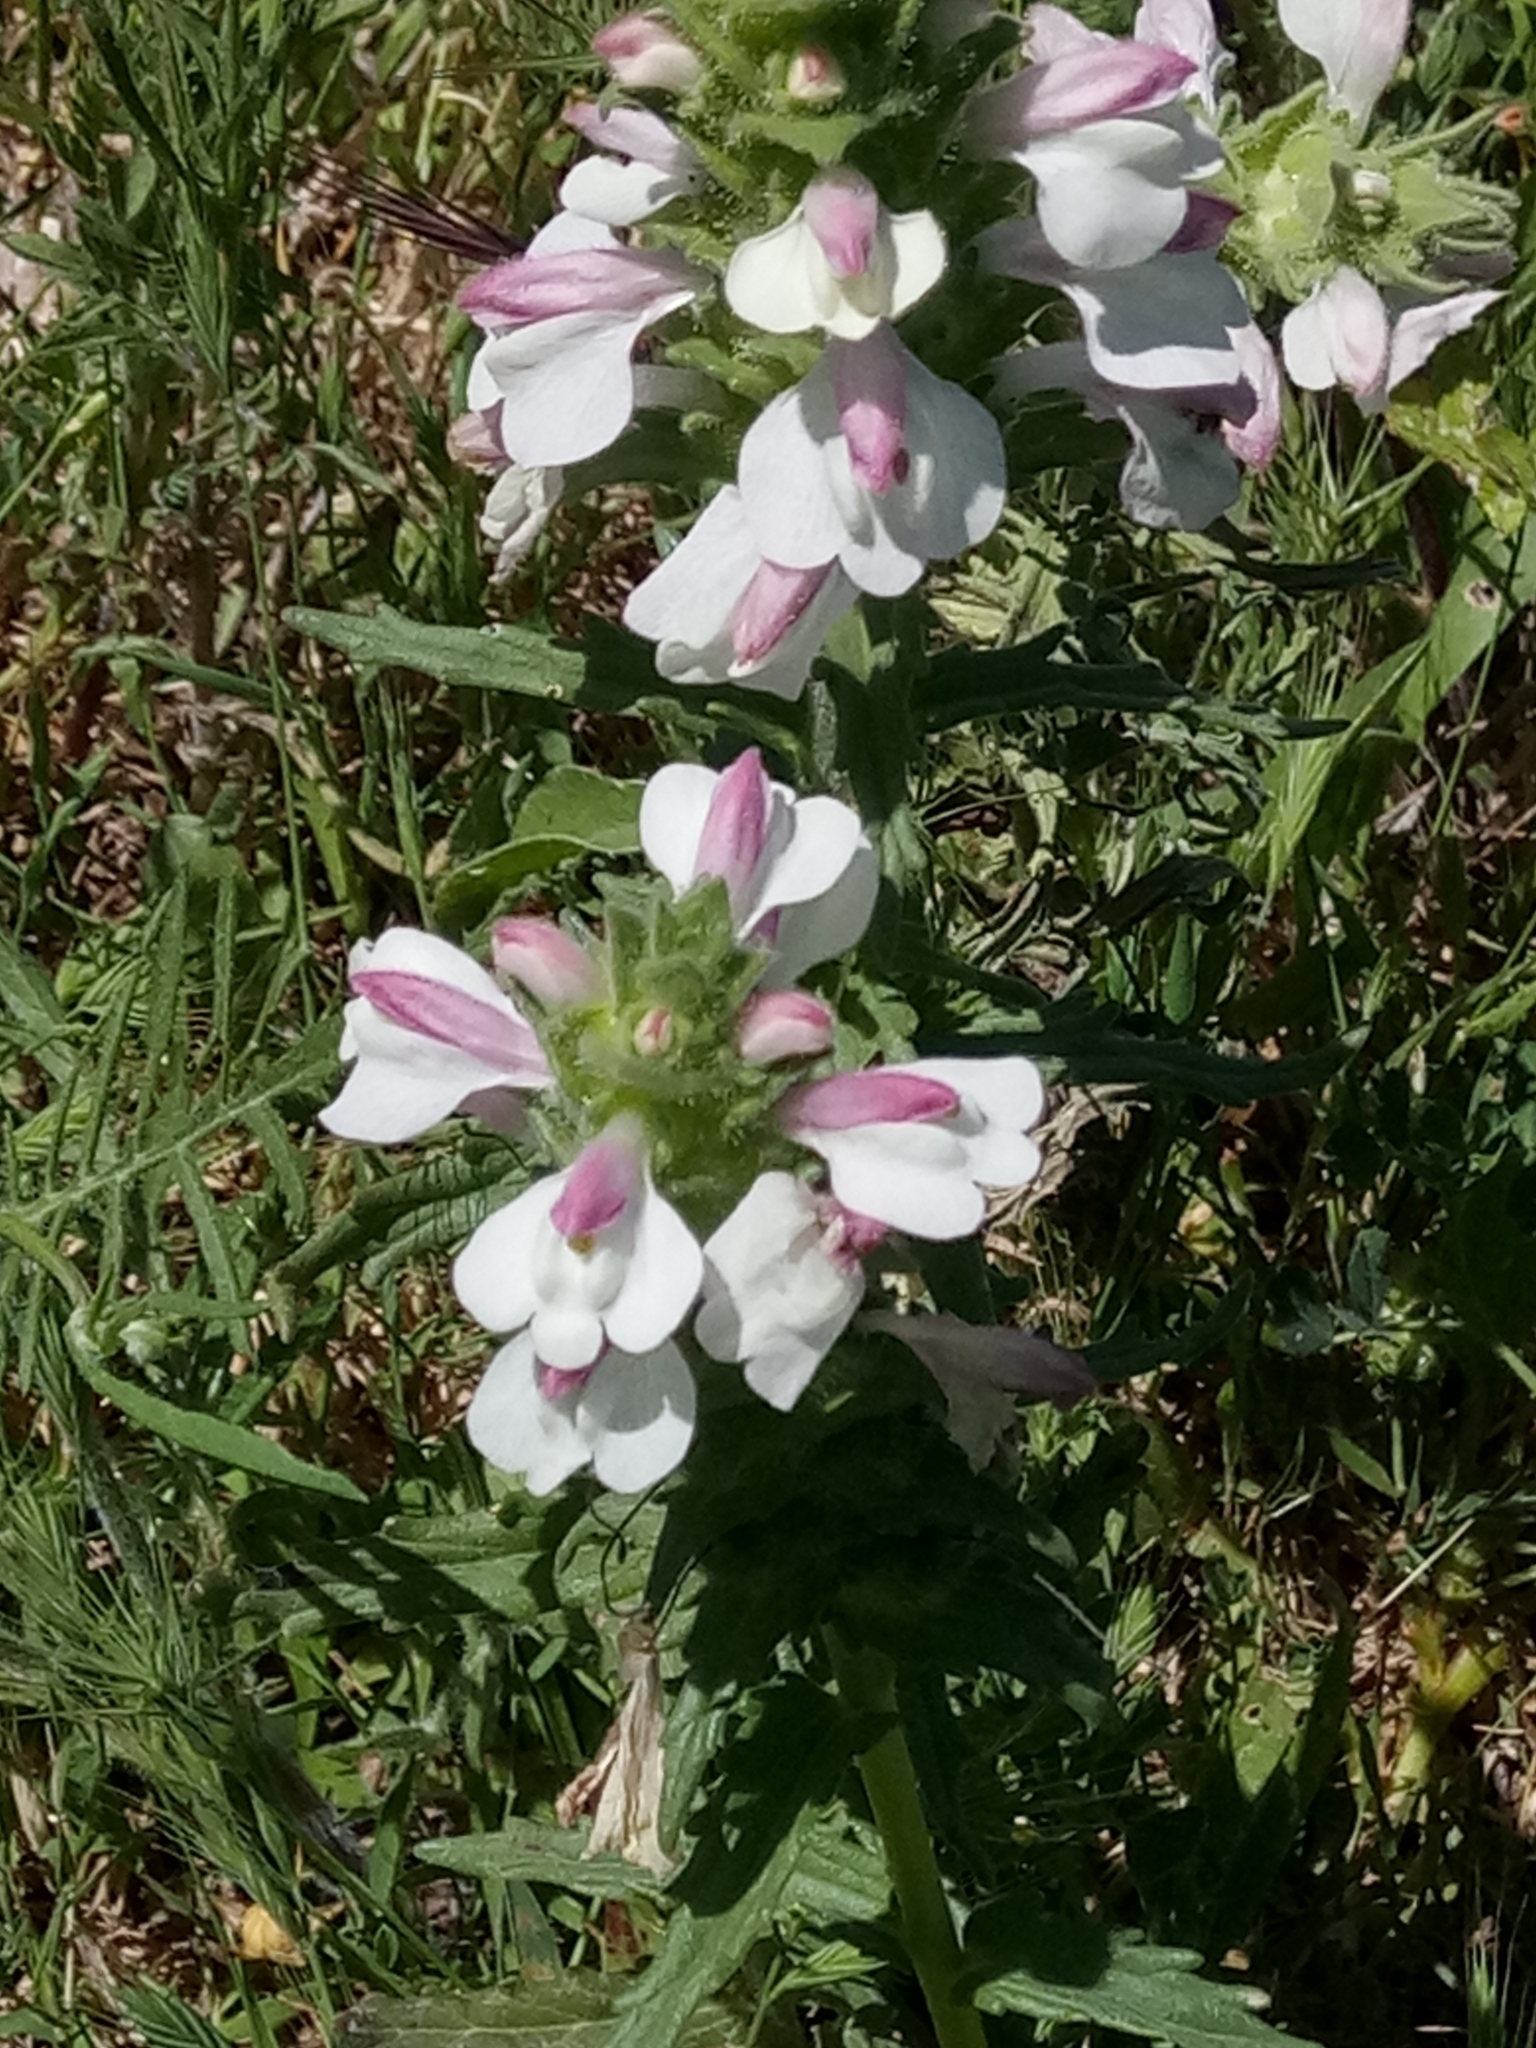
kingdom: Plantae
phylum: Tracheophyta
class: Magnoliopsida
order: Lamiales
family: Orobanchaceae
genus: Bellardia
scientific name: Bellardia trixago
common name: Mediterranean lineseed
